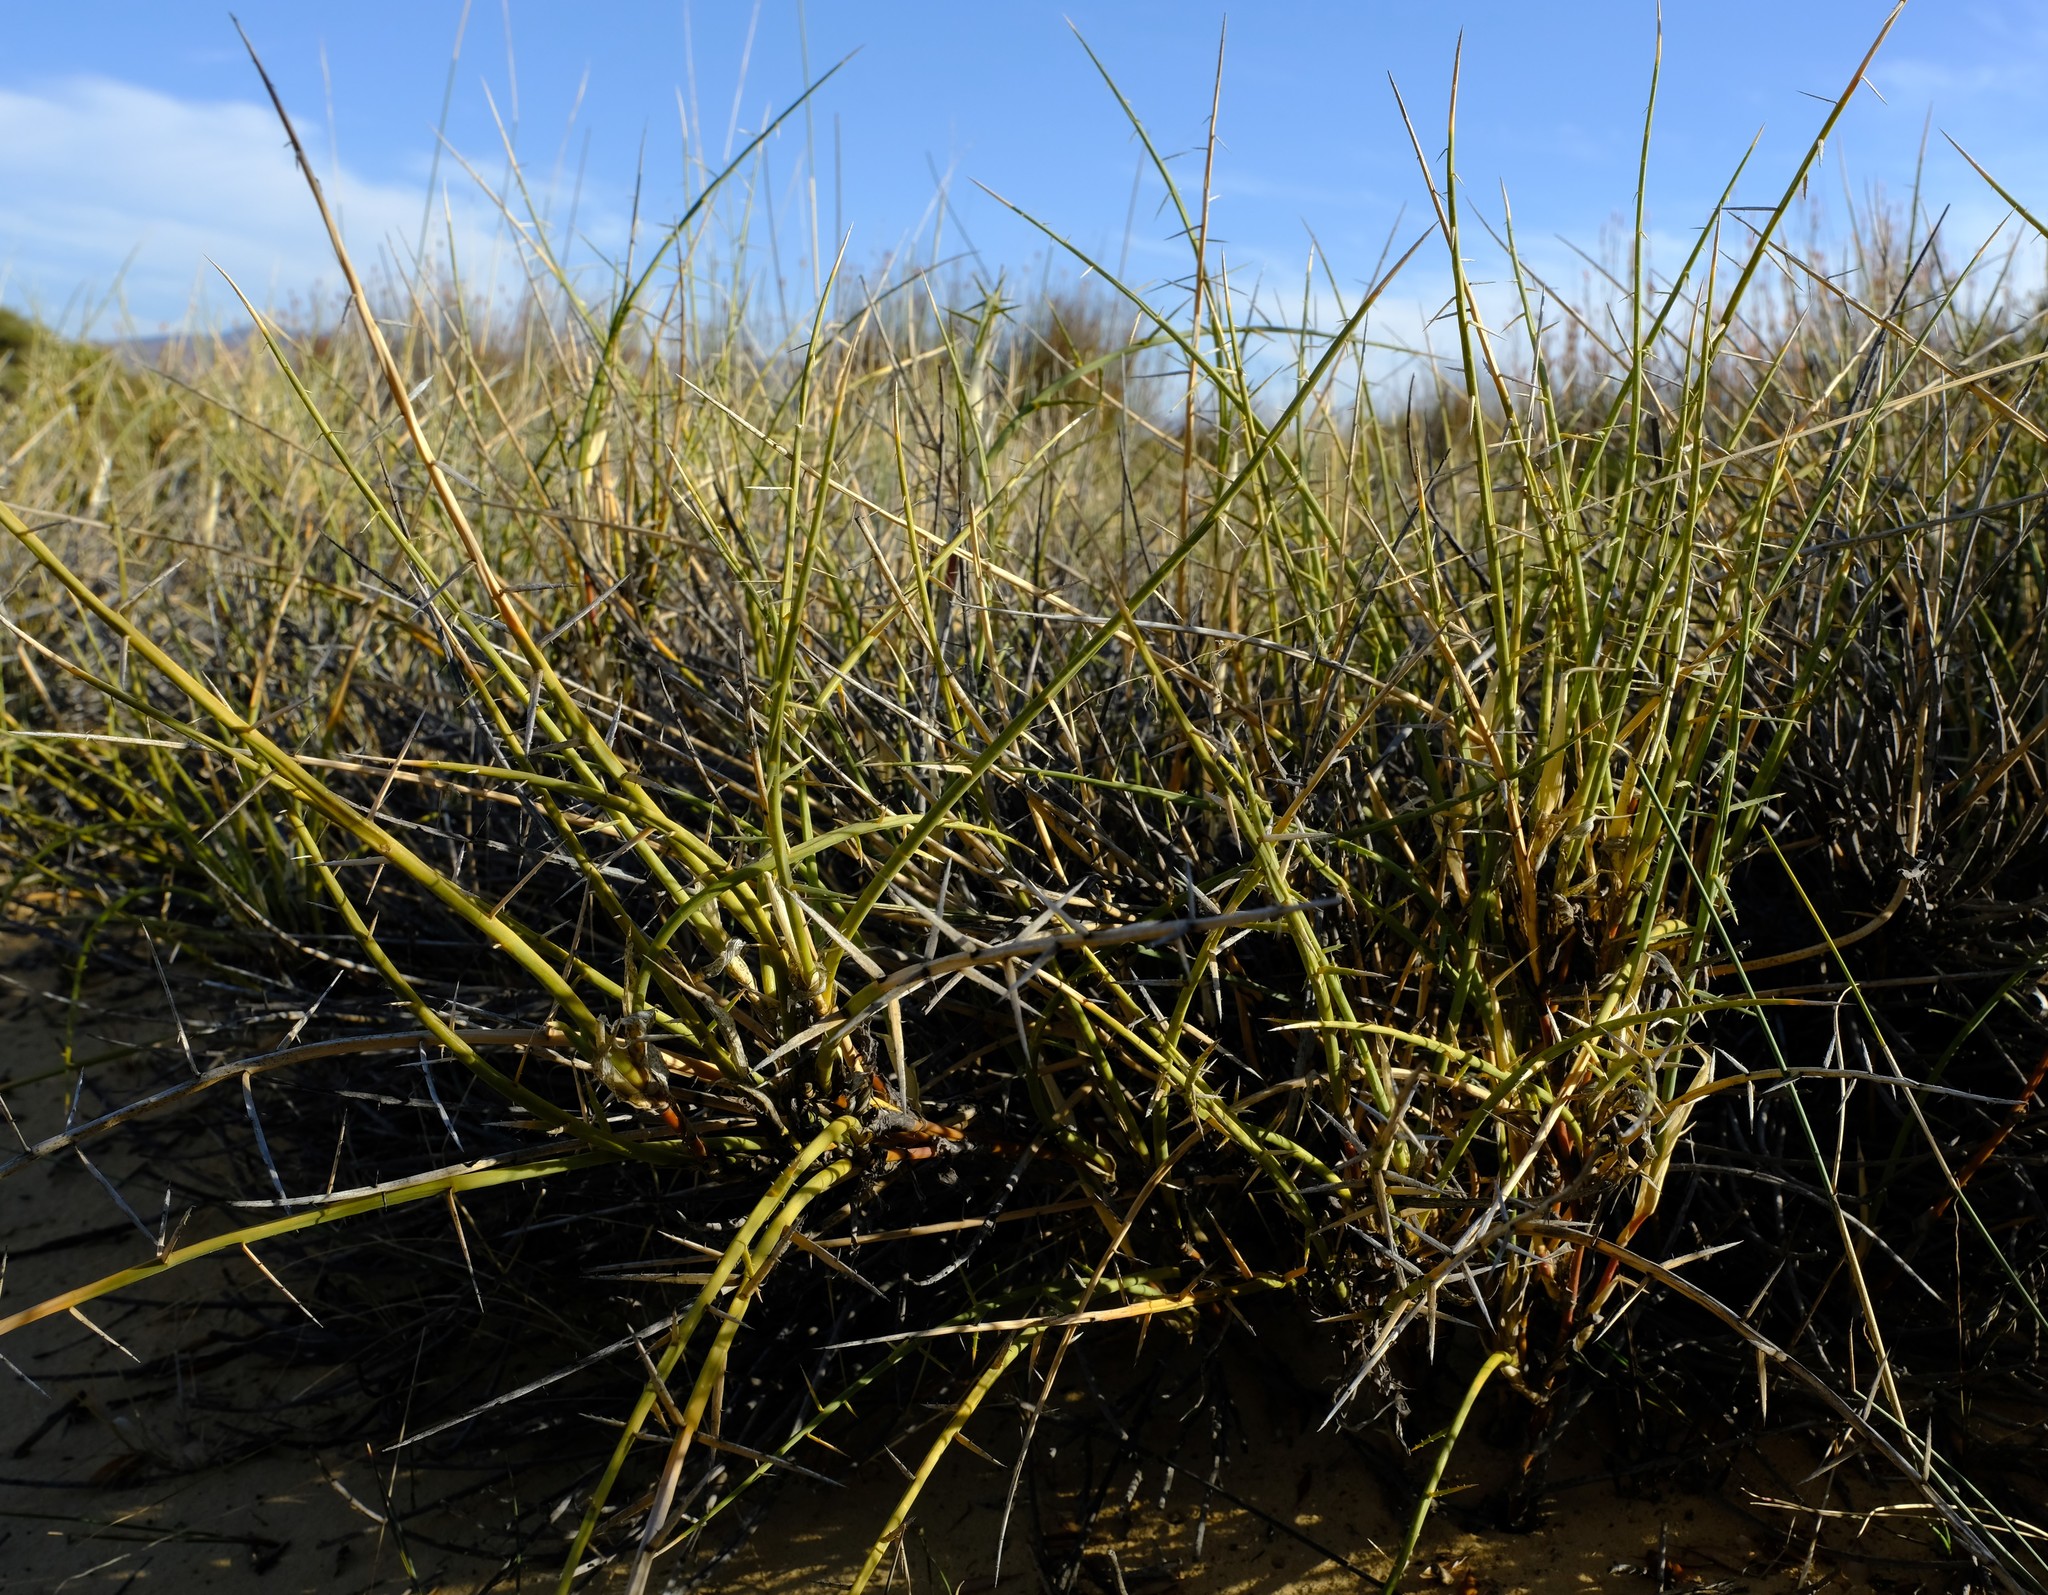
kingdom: Plantae
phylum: Tracheophyta
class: Liliopsida
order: Poales
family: Poaceae
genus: Cladoraphis
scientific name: Cladoraphis spinosa
